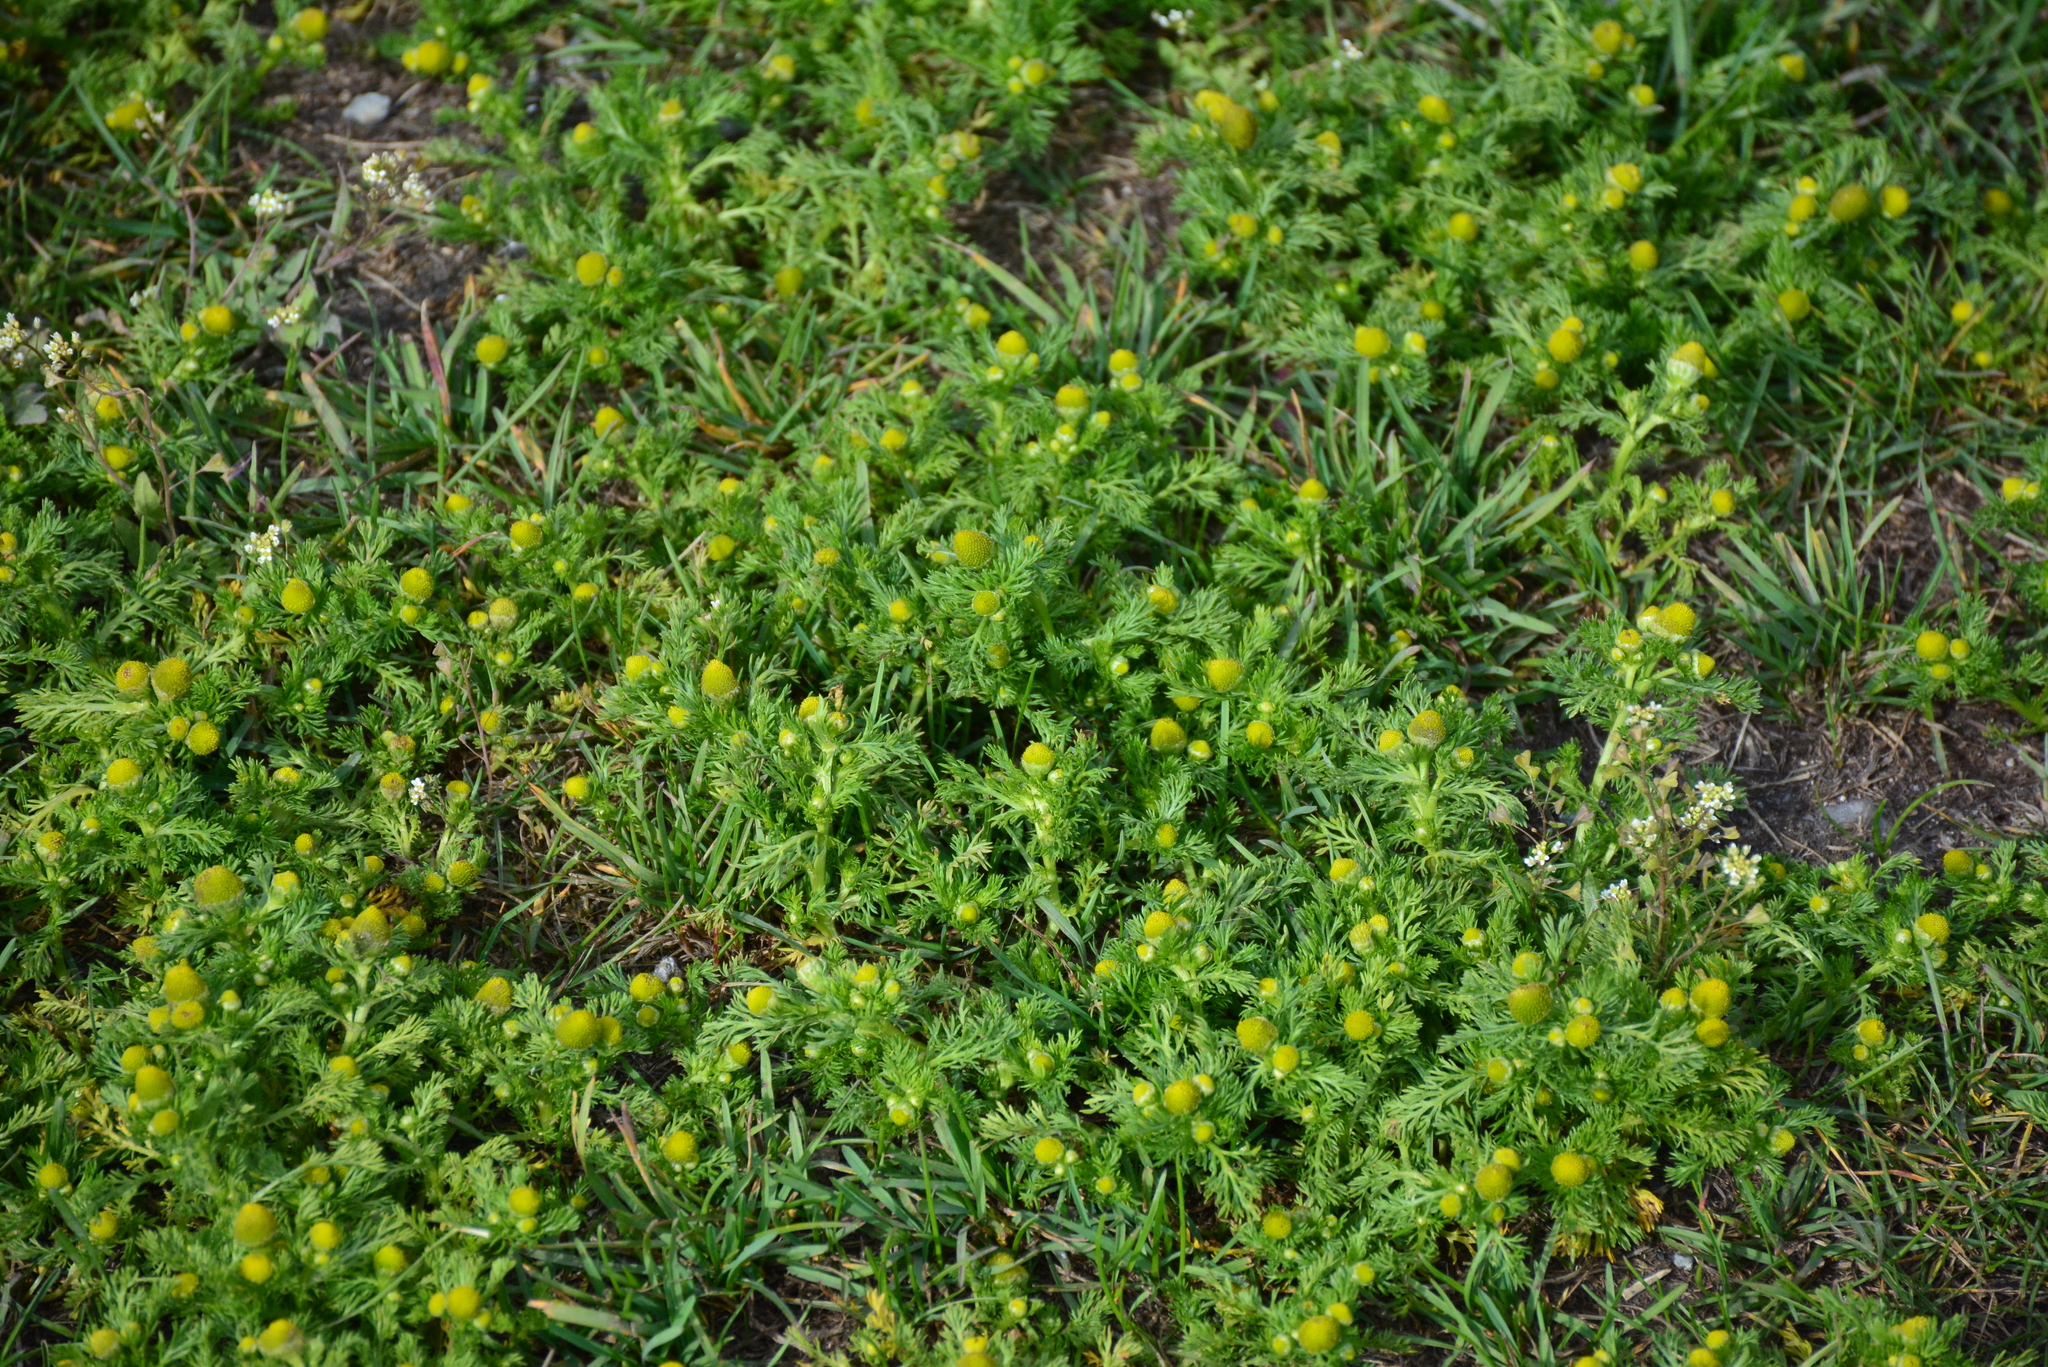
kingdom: Plantae
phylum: Tracheophyta
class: Magnoliopsida
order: Asterales
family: Asteraceae
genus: Matricaria
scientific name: Matricaria discoidea
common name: Disc mayweed
